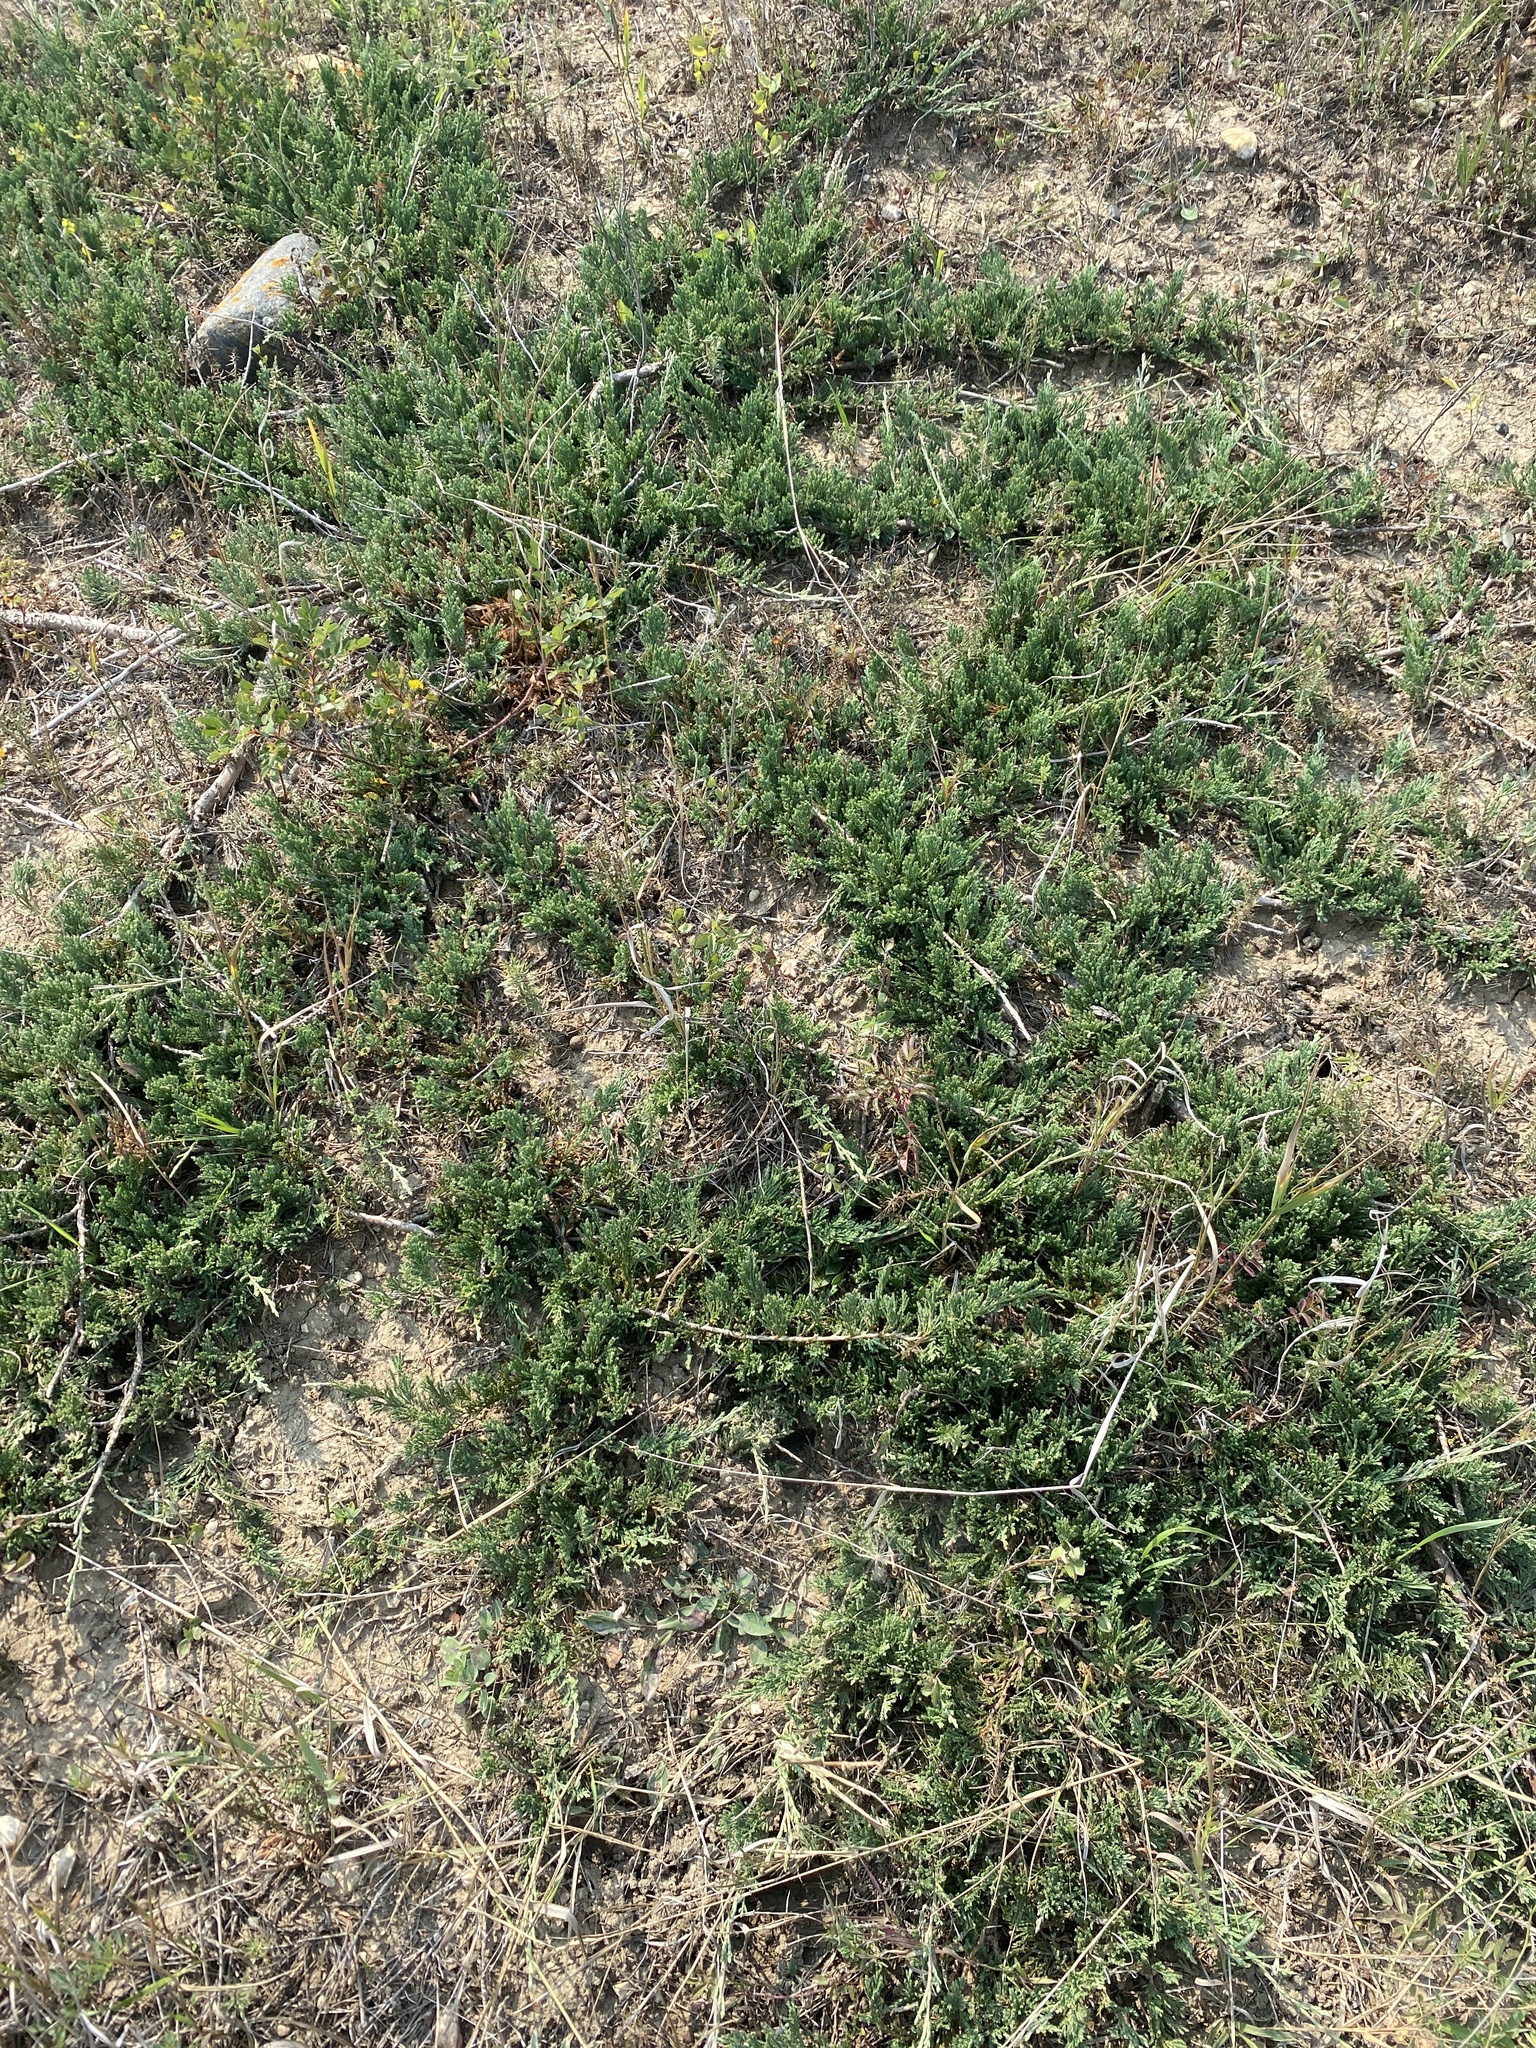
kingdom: Plantae
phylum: Tracheophyta
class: Pinopsida
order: Pinales
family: Cupressaceae
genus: Juniperus
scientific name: Juniperus horizontalis
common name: Creeping juniper
